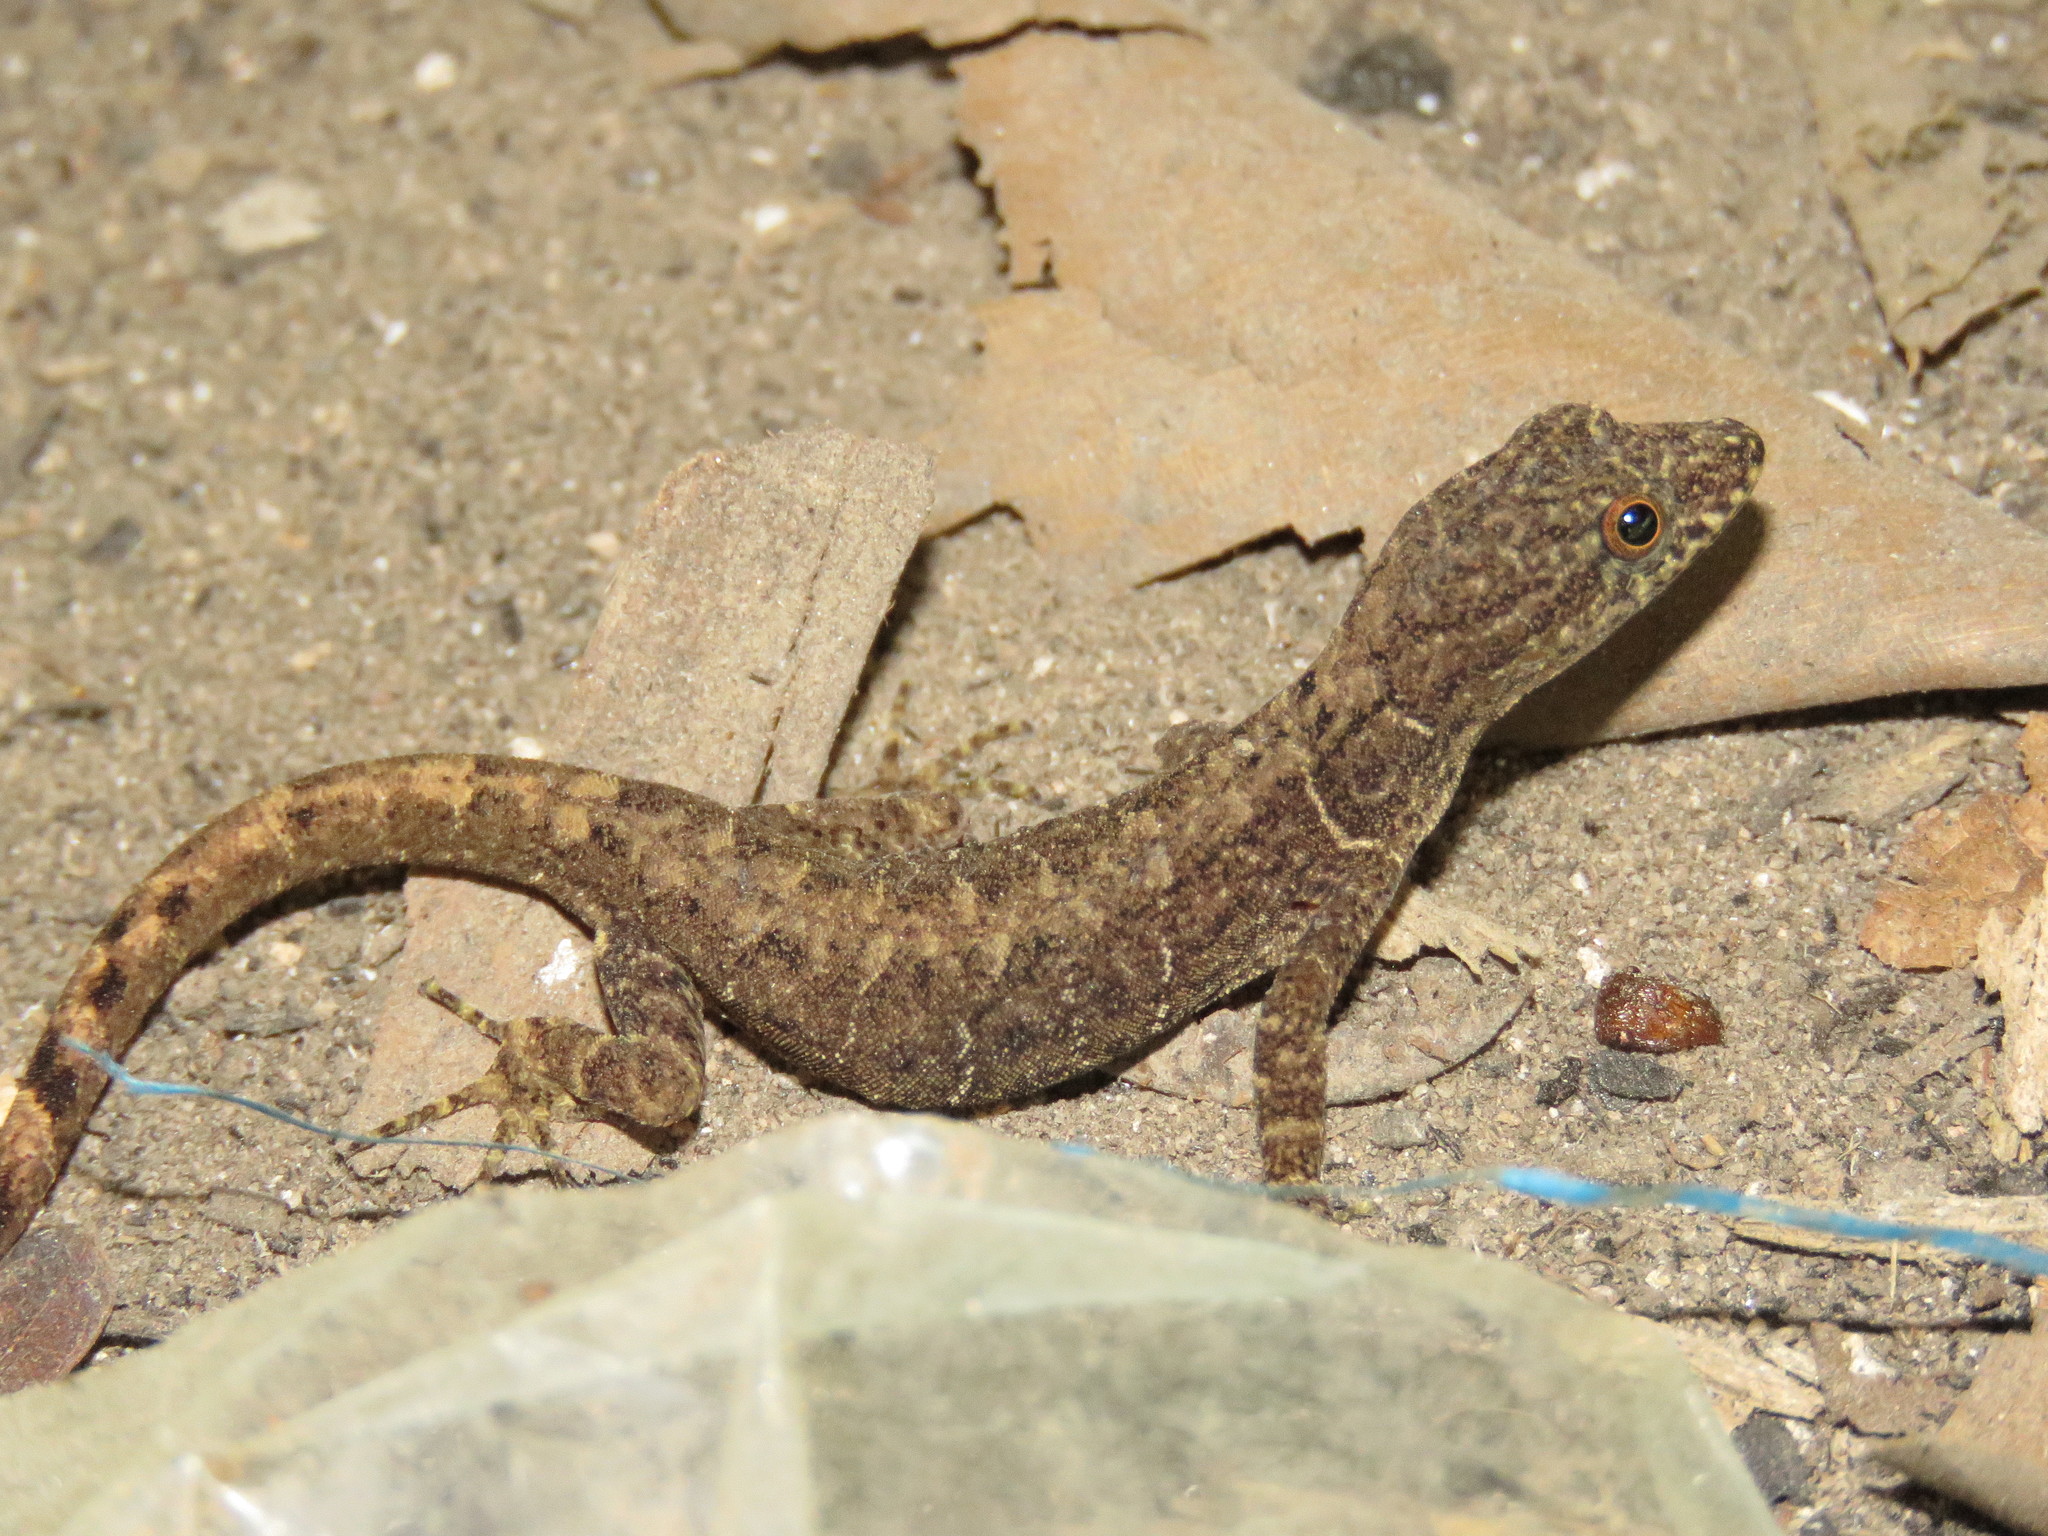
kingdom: Animalia
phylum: Chordata
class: Squamata
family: Sphaerodactylidae
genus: Gonatodes
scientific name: Gonatodes humeralis
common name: South american clawed gecko
